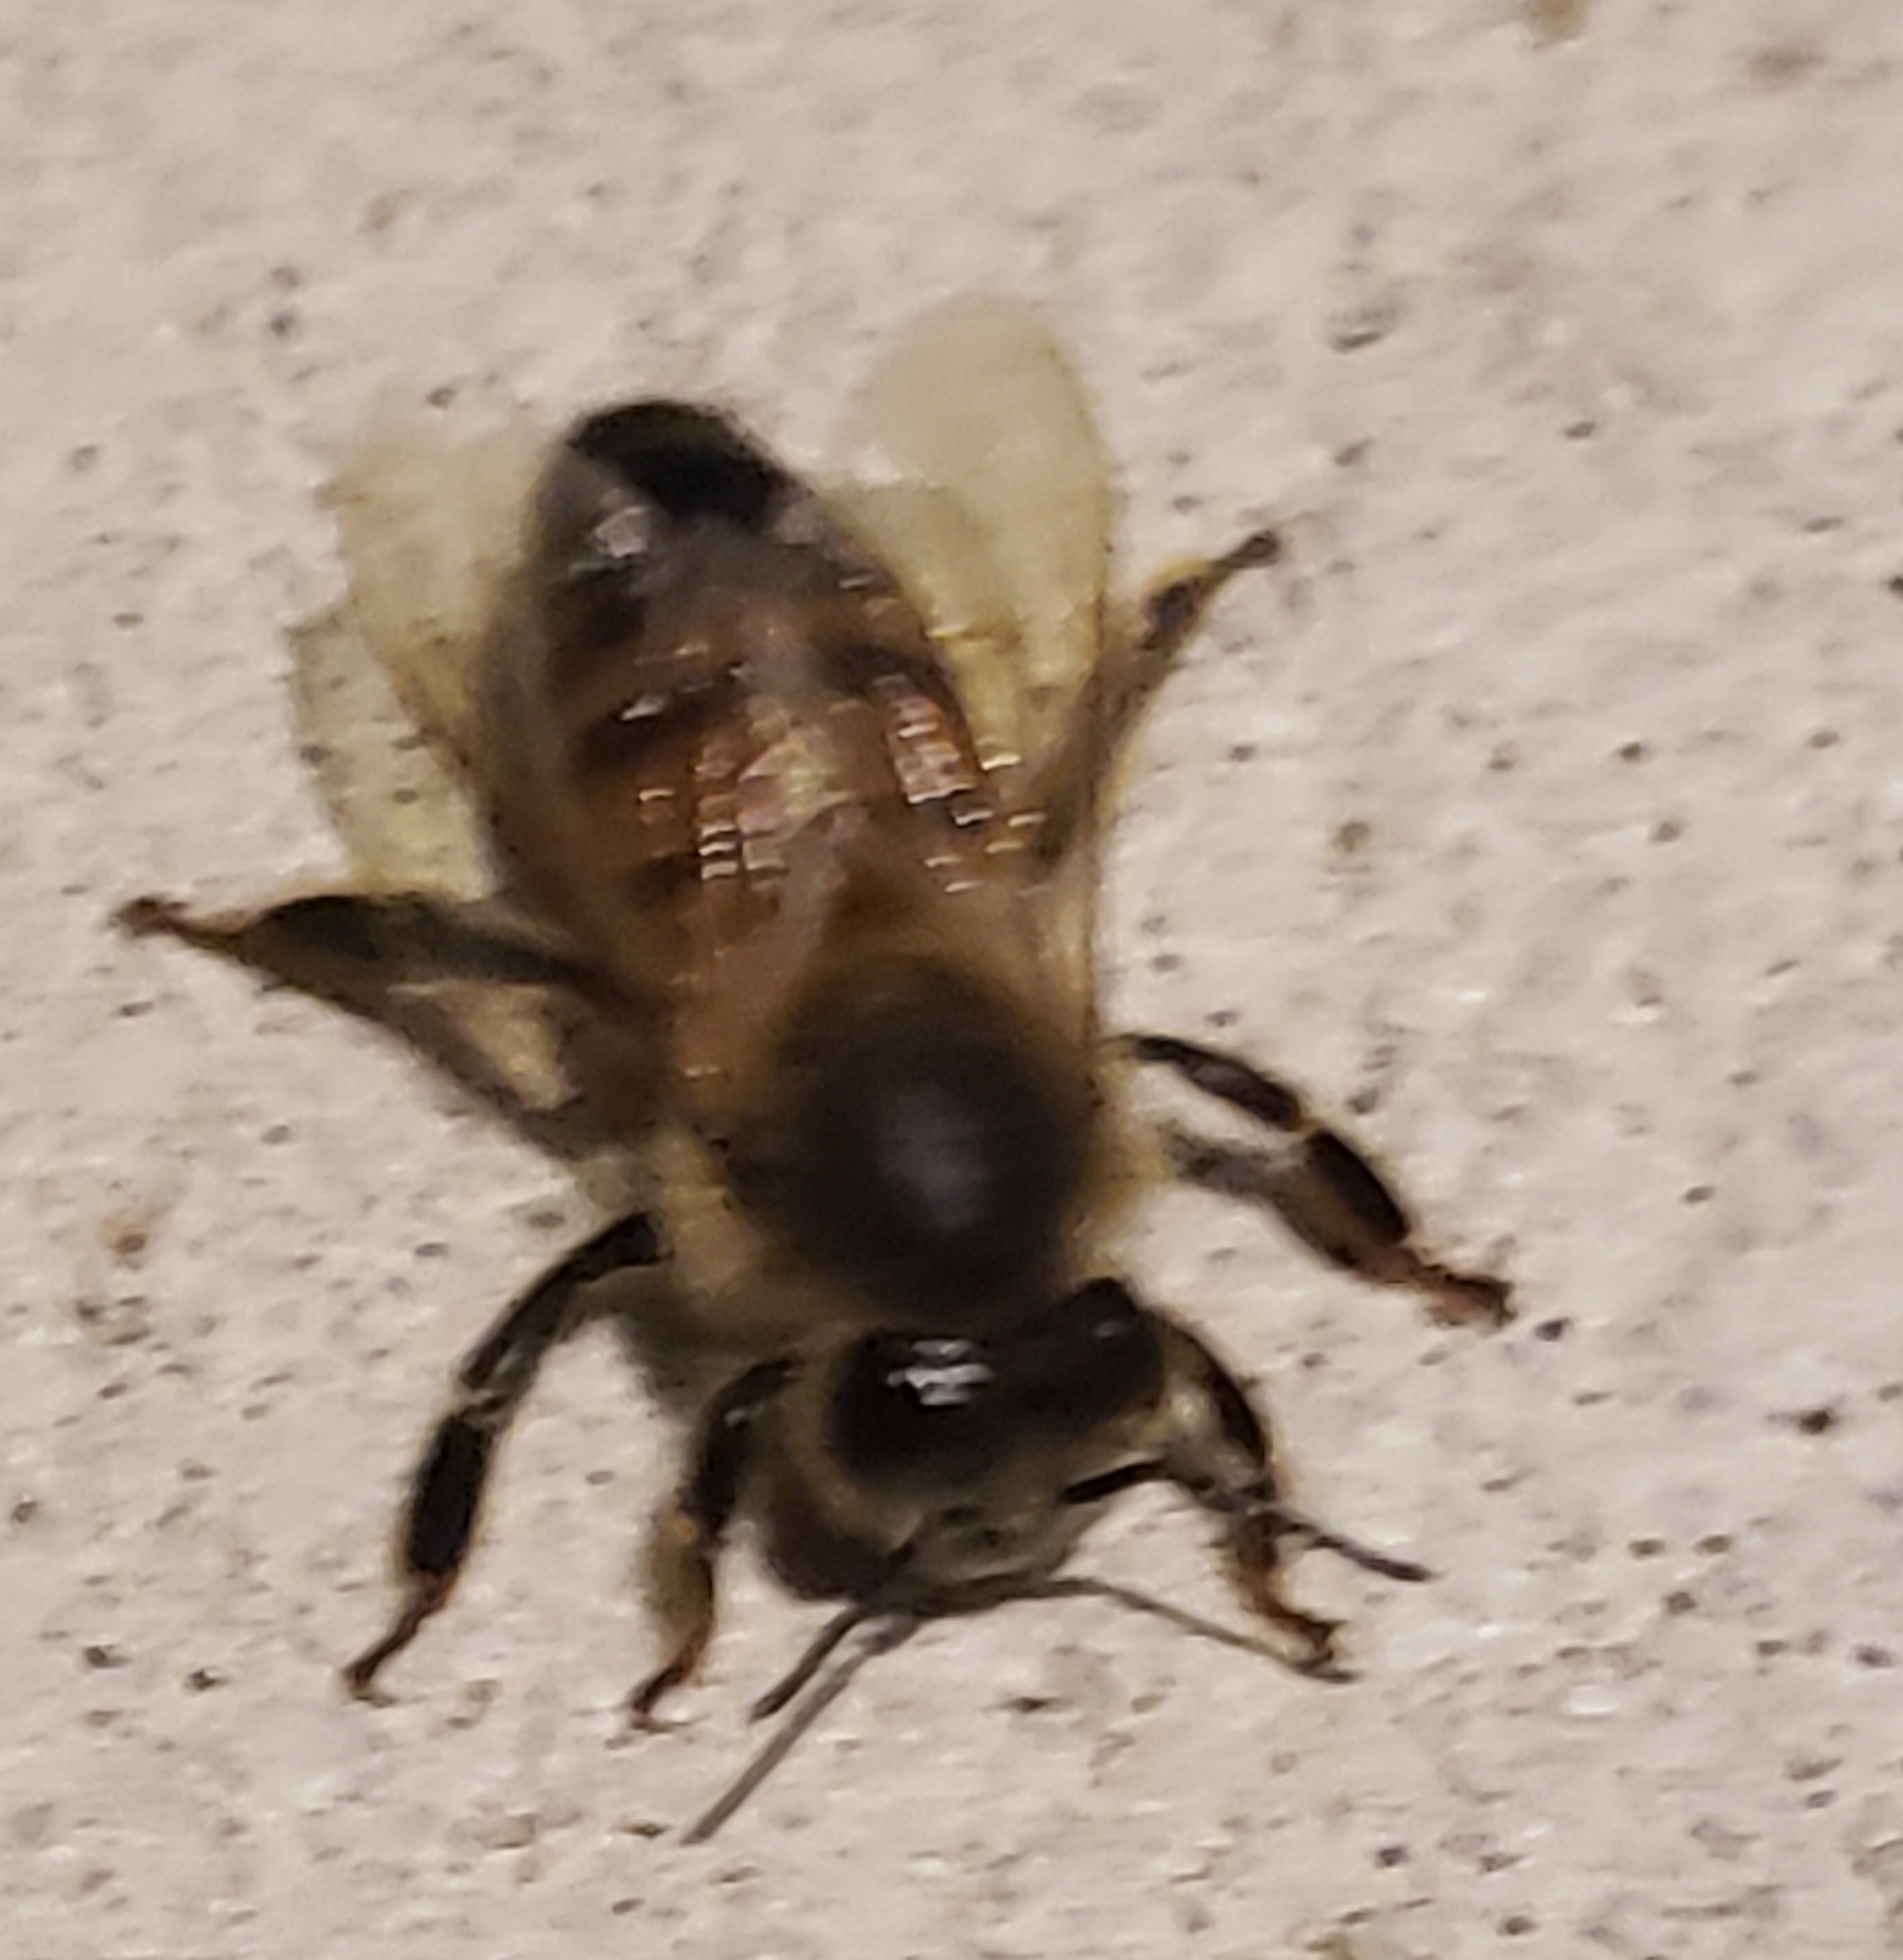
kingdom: Animalia
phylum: Arthropoda
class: Insecta
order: Hymenoptera
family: Apidae
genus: Apis
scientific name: Apis mellifera
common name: Honey bee
